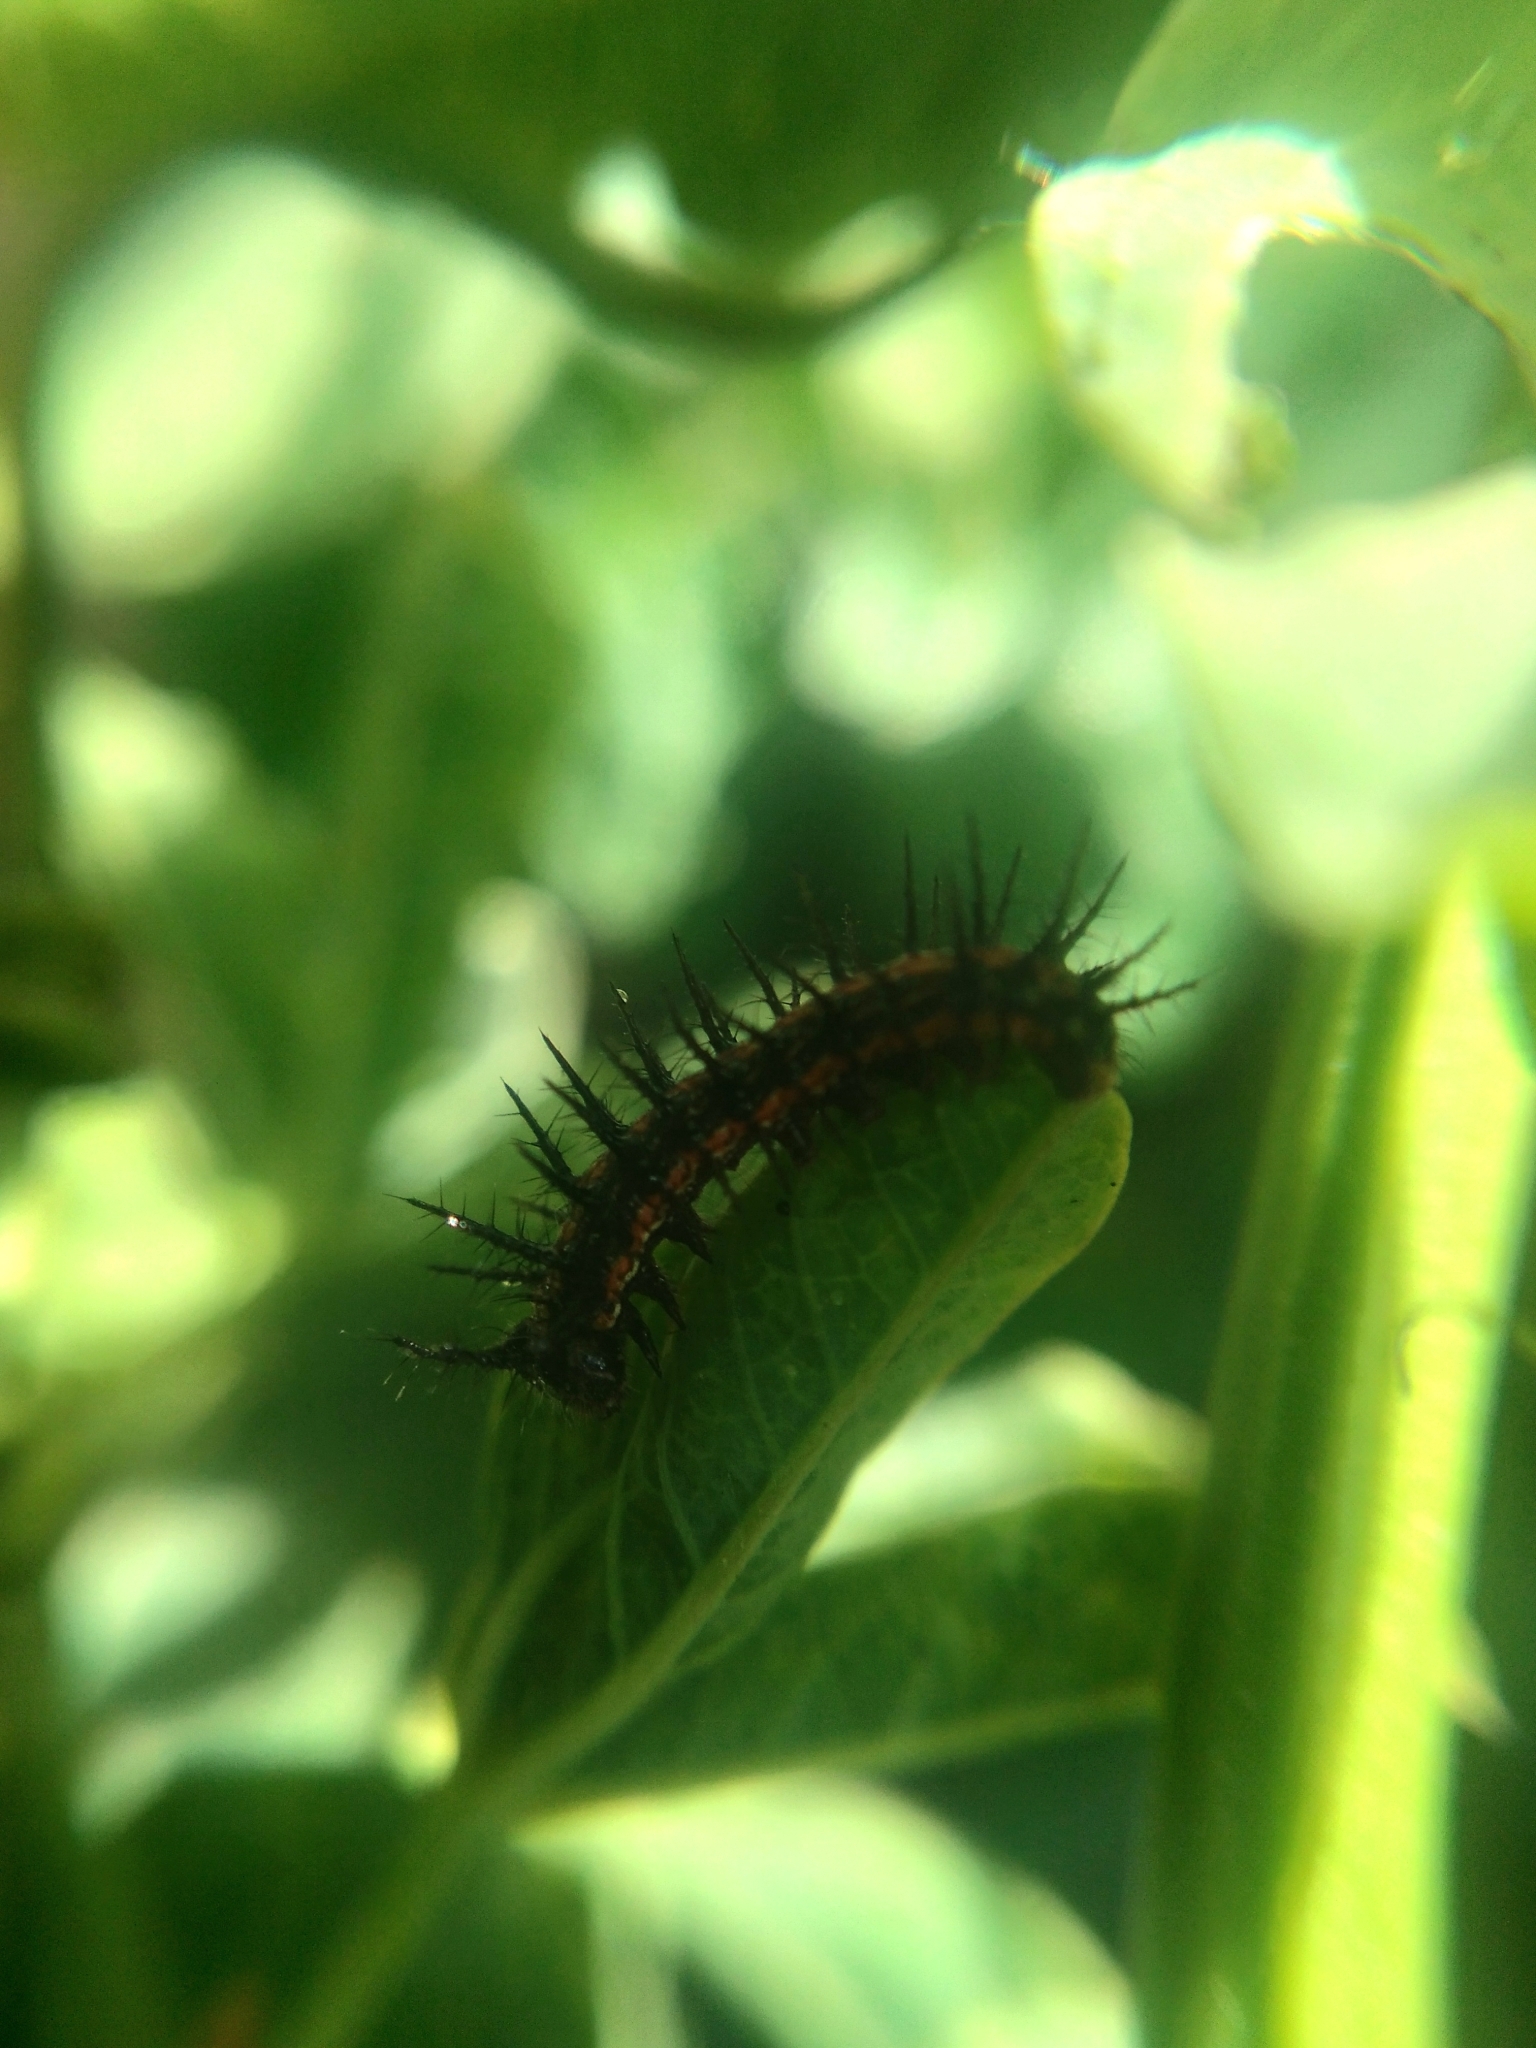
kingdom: Animalia
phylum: Arthropoda
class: Insecta
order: Lepidoptera
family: Nymphalidae
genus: Dione
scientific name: Dione vanillae
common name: Gulf fritillary
